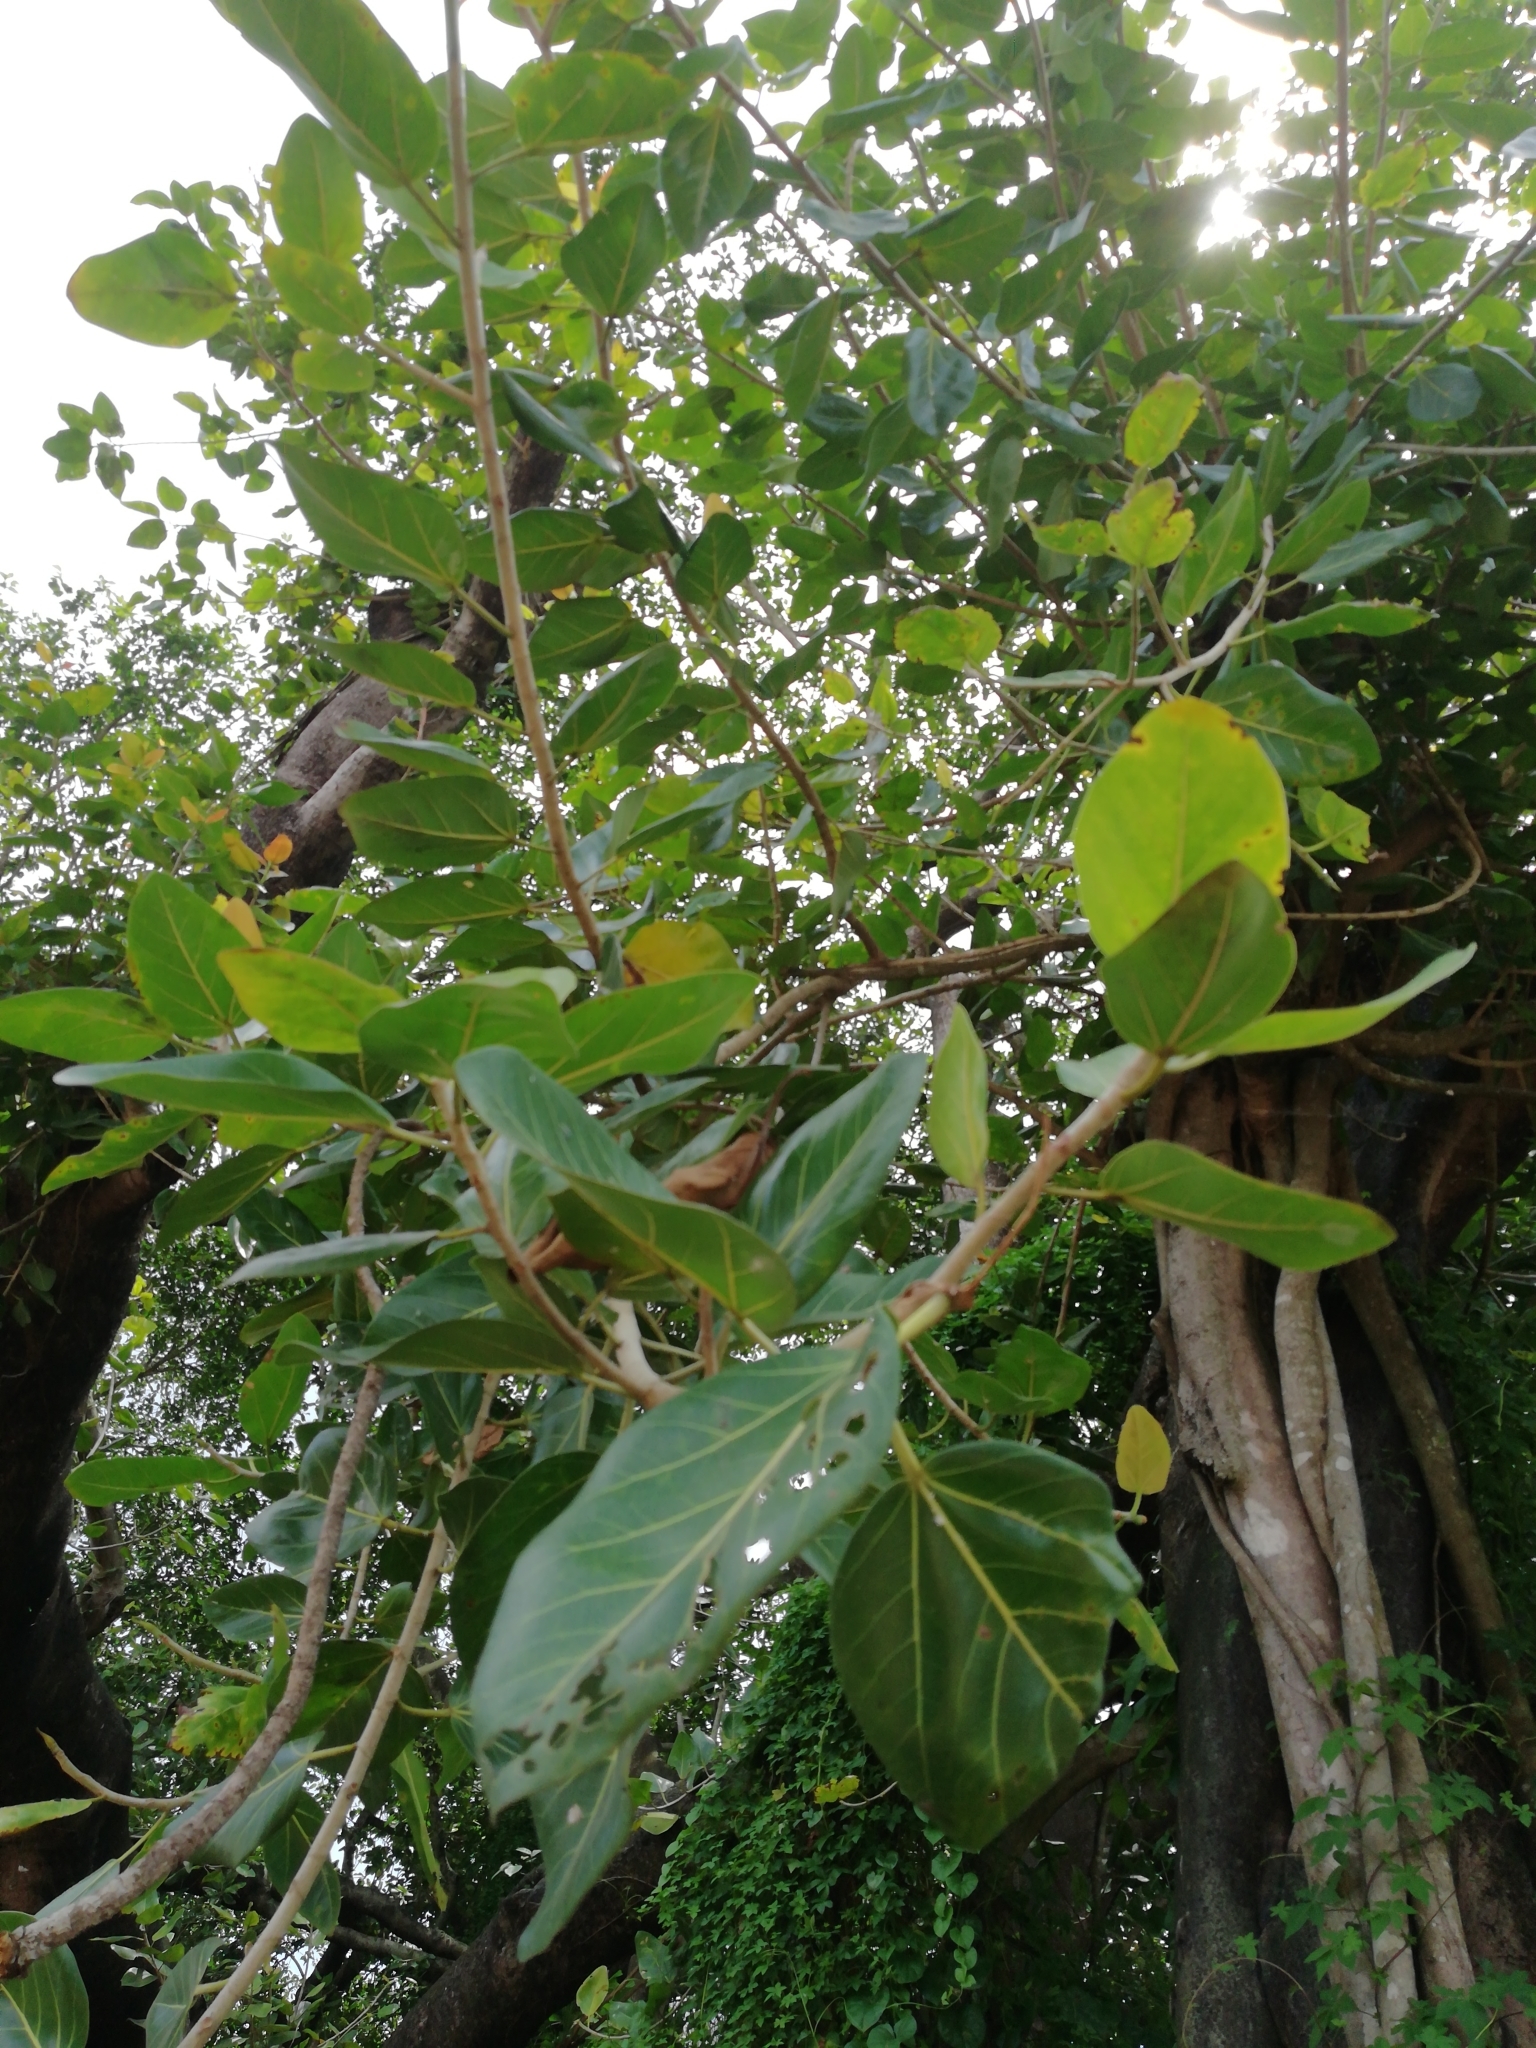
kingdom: Plantae
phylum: Tracheophyta
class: Magnoliopsida
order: Rosales
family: Moraceae
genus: Ficus
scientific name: Ficus benghalensis
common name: Indian banyan
